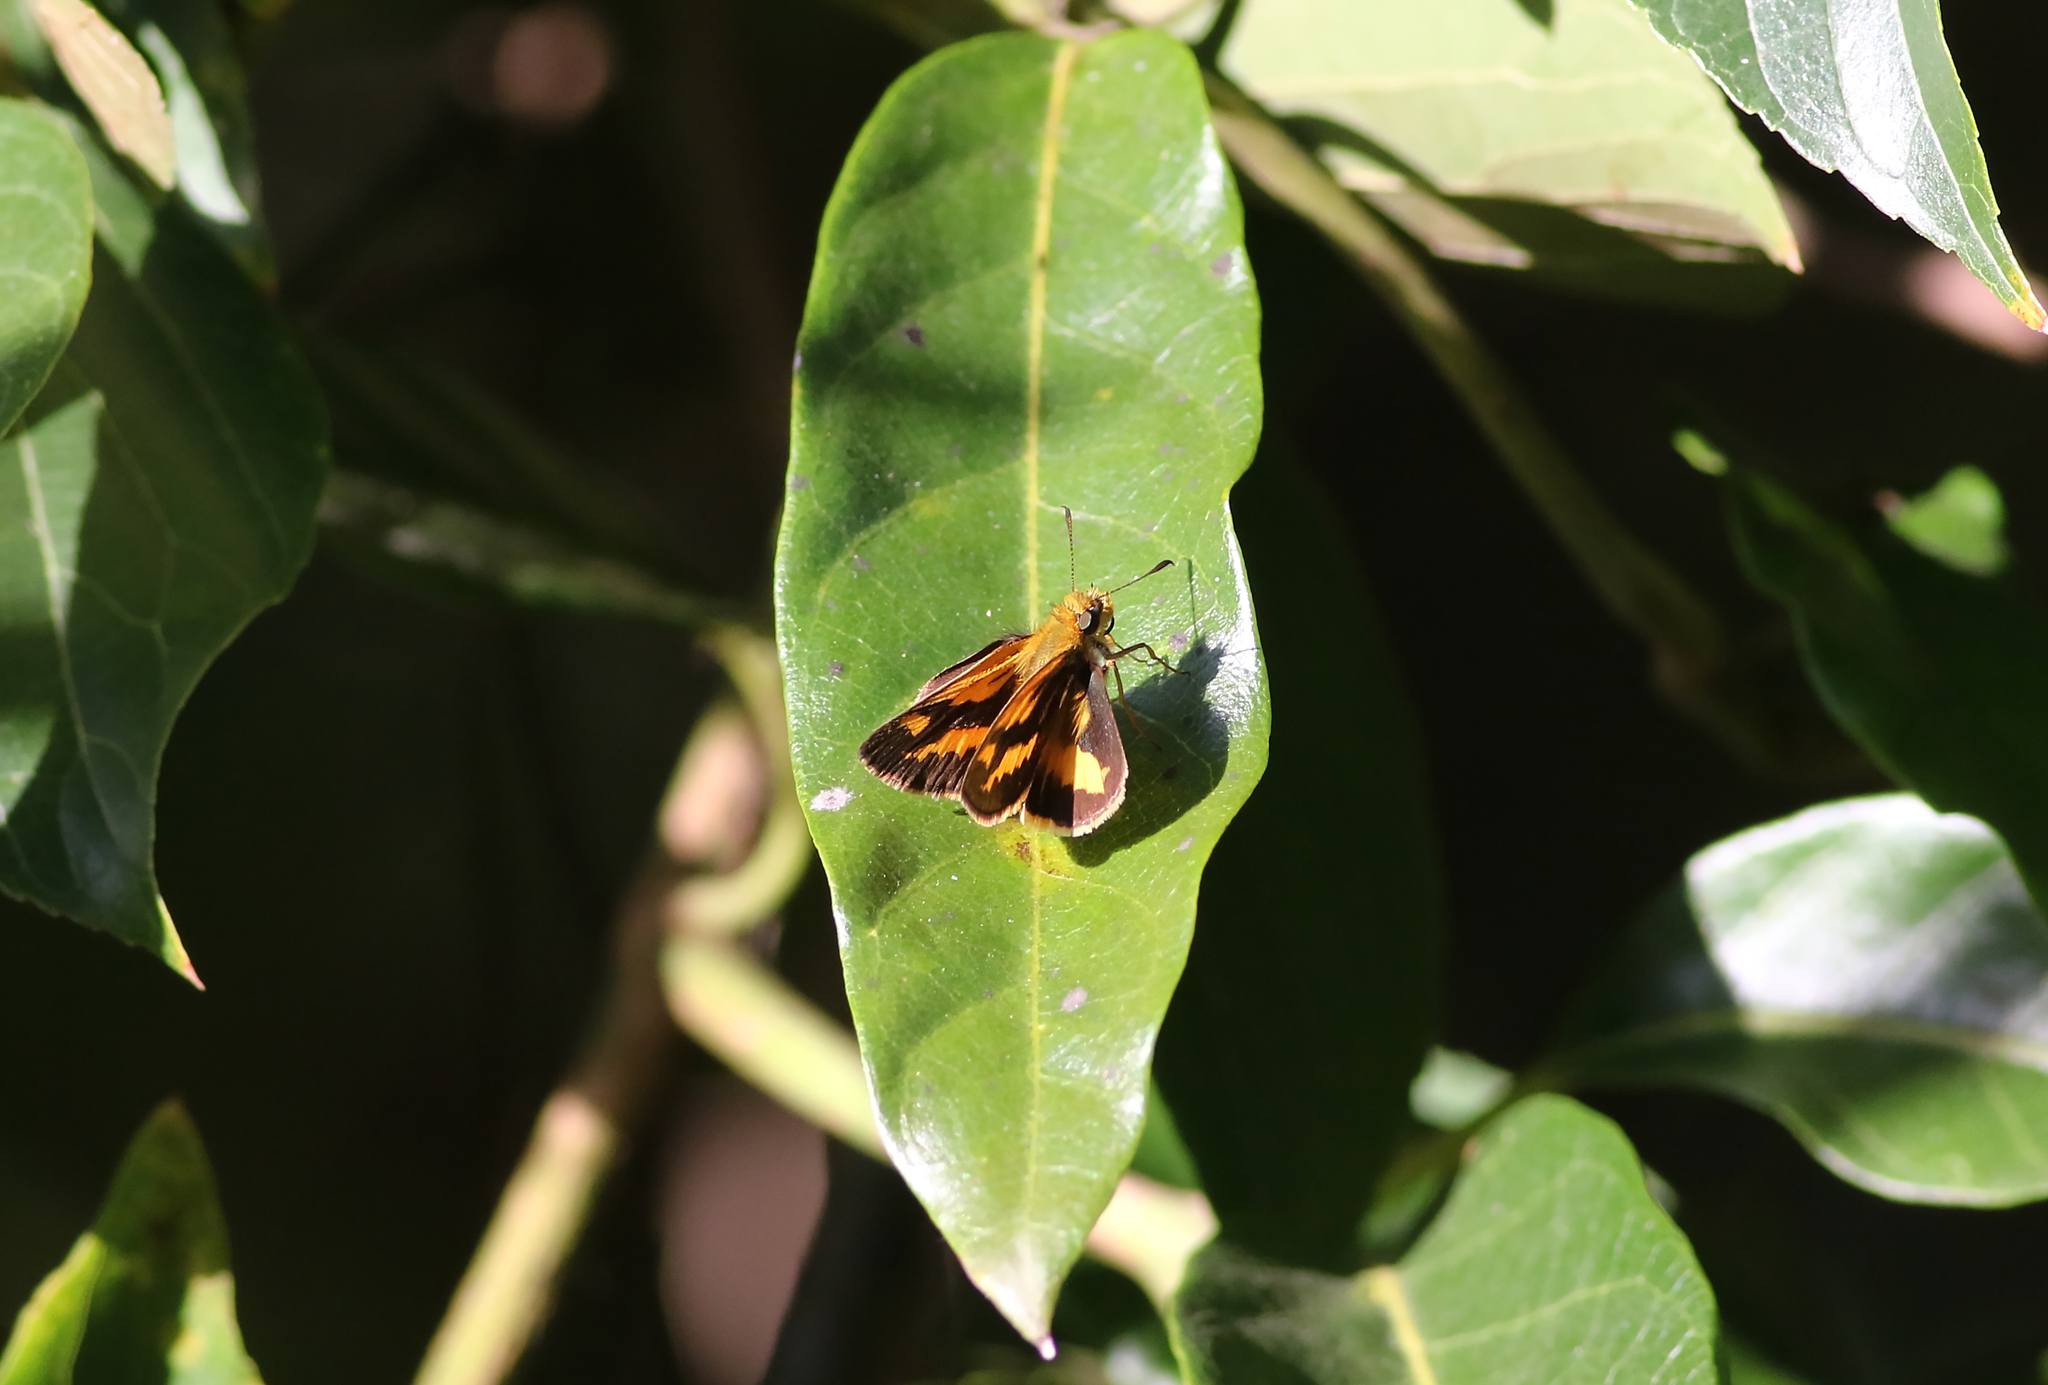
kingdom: Animalia
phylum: Arthropoda
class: Insecta
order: Lepidoptera
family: Hesperiidae
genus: Arrhenes
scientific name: Arrhenes marnas
